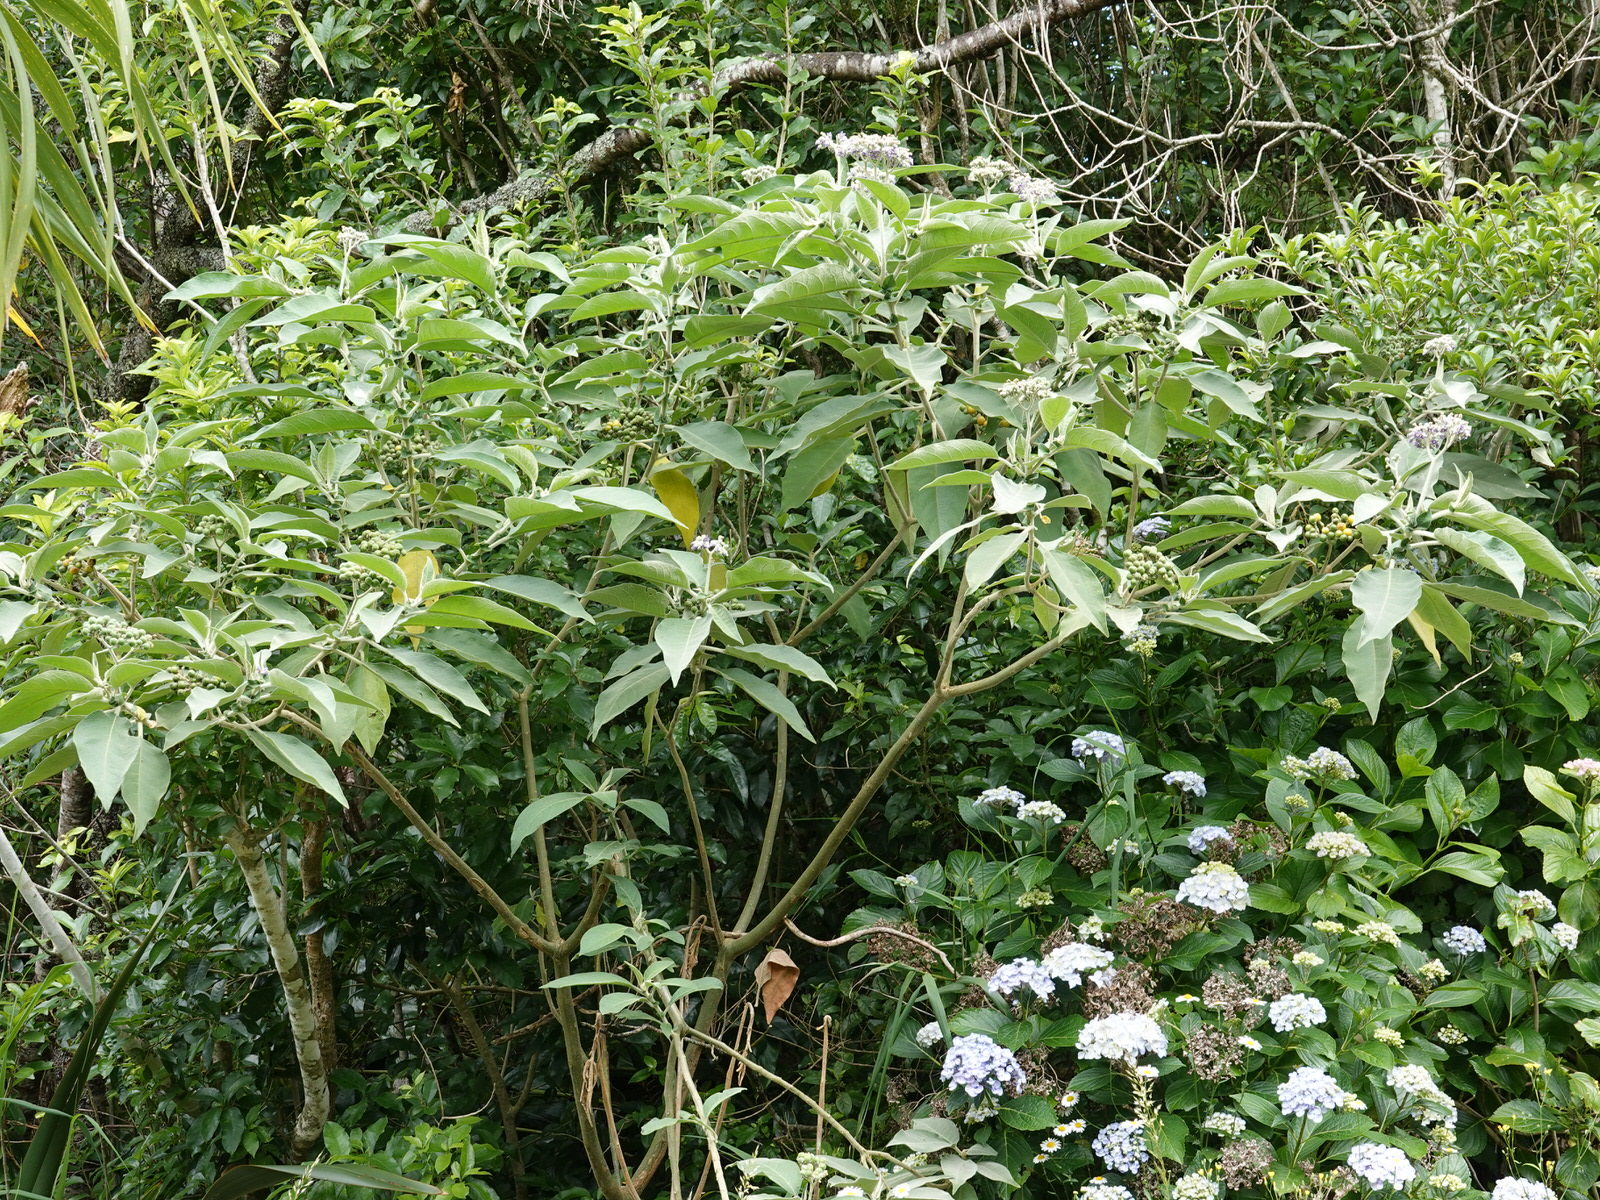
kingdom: Plantae
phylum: Tracheophyta
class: Magnoliopsida
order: Solanales
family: Solanaceae
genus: Solanum
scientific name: Solanum mauritianum
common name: Earleaf nightshade
